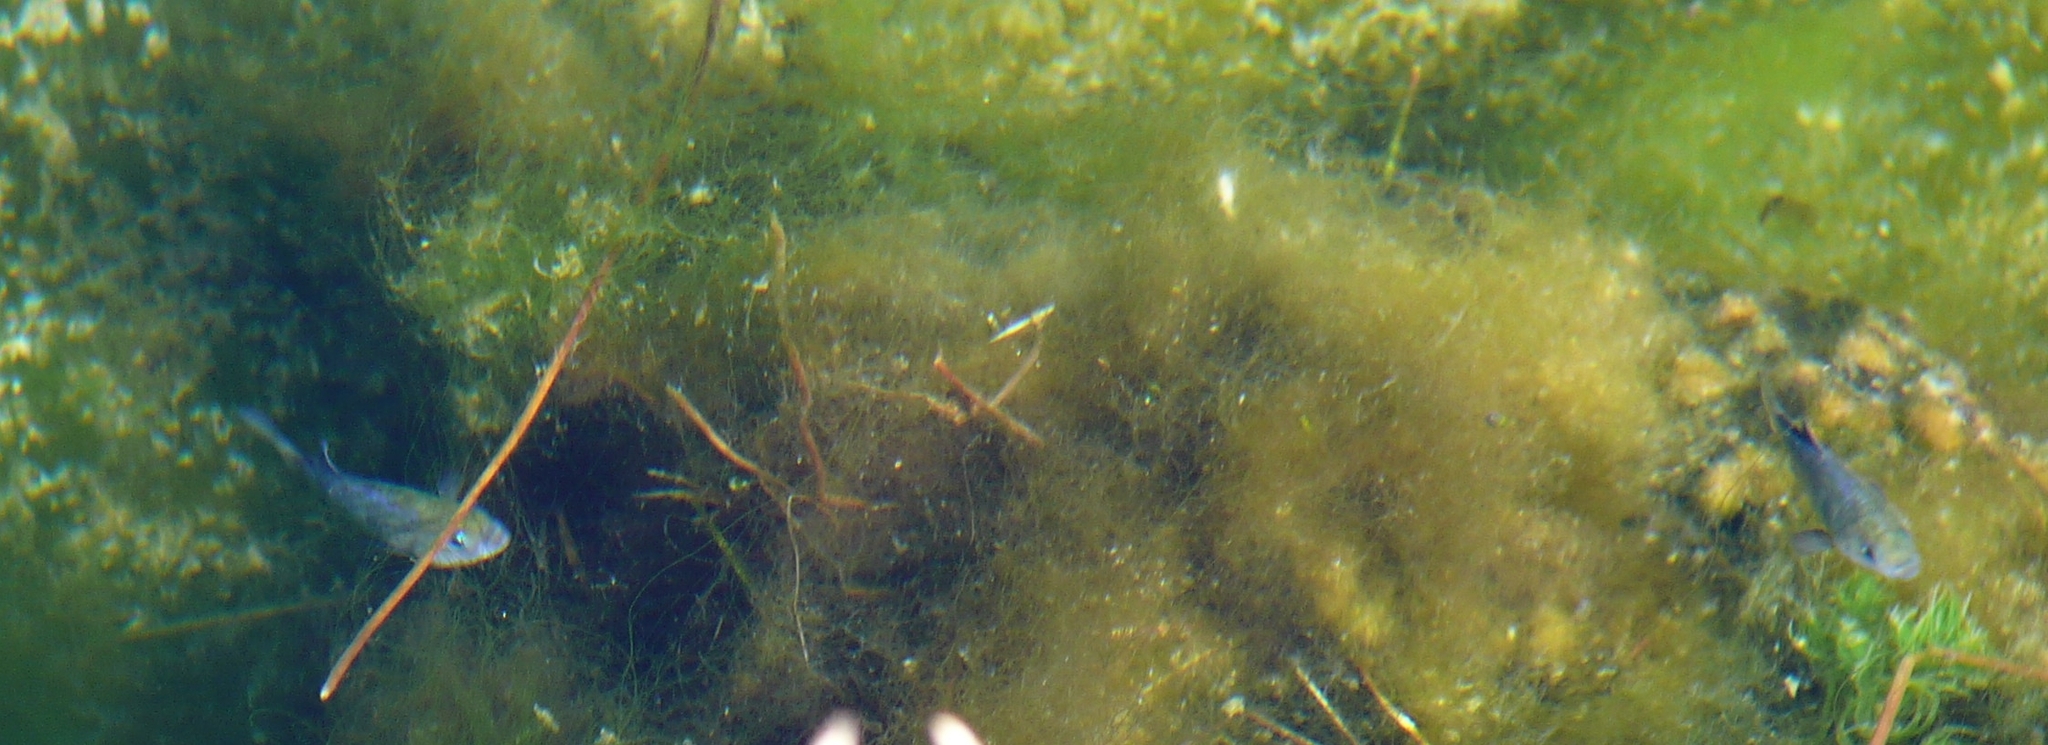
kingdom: Animalia
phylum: Chordata
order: Cyprinodontiformes
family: Cyprinodontidae
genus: Cyprinodon
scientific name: Cyprinodon nevadensis
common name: Amargosa pupfish
